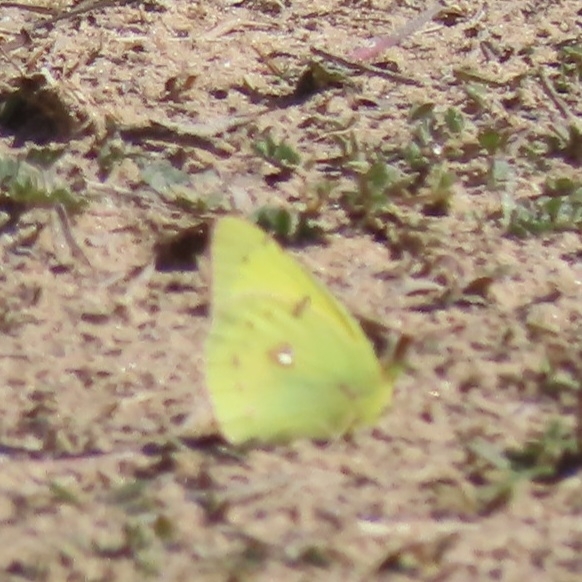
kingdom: Animalia
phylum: Arthropoda
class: Insecta
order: Lepidoptera
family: Pieridae
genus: Colias
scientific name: Colias eurytheme
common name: Alfalfa butterfly
